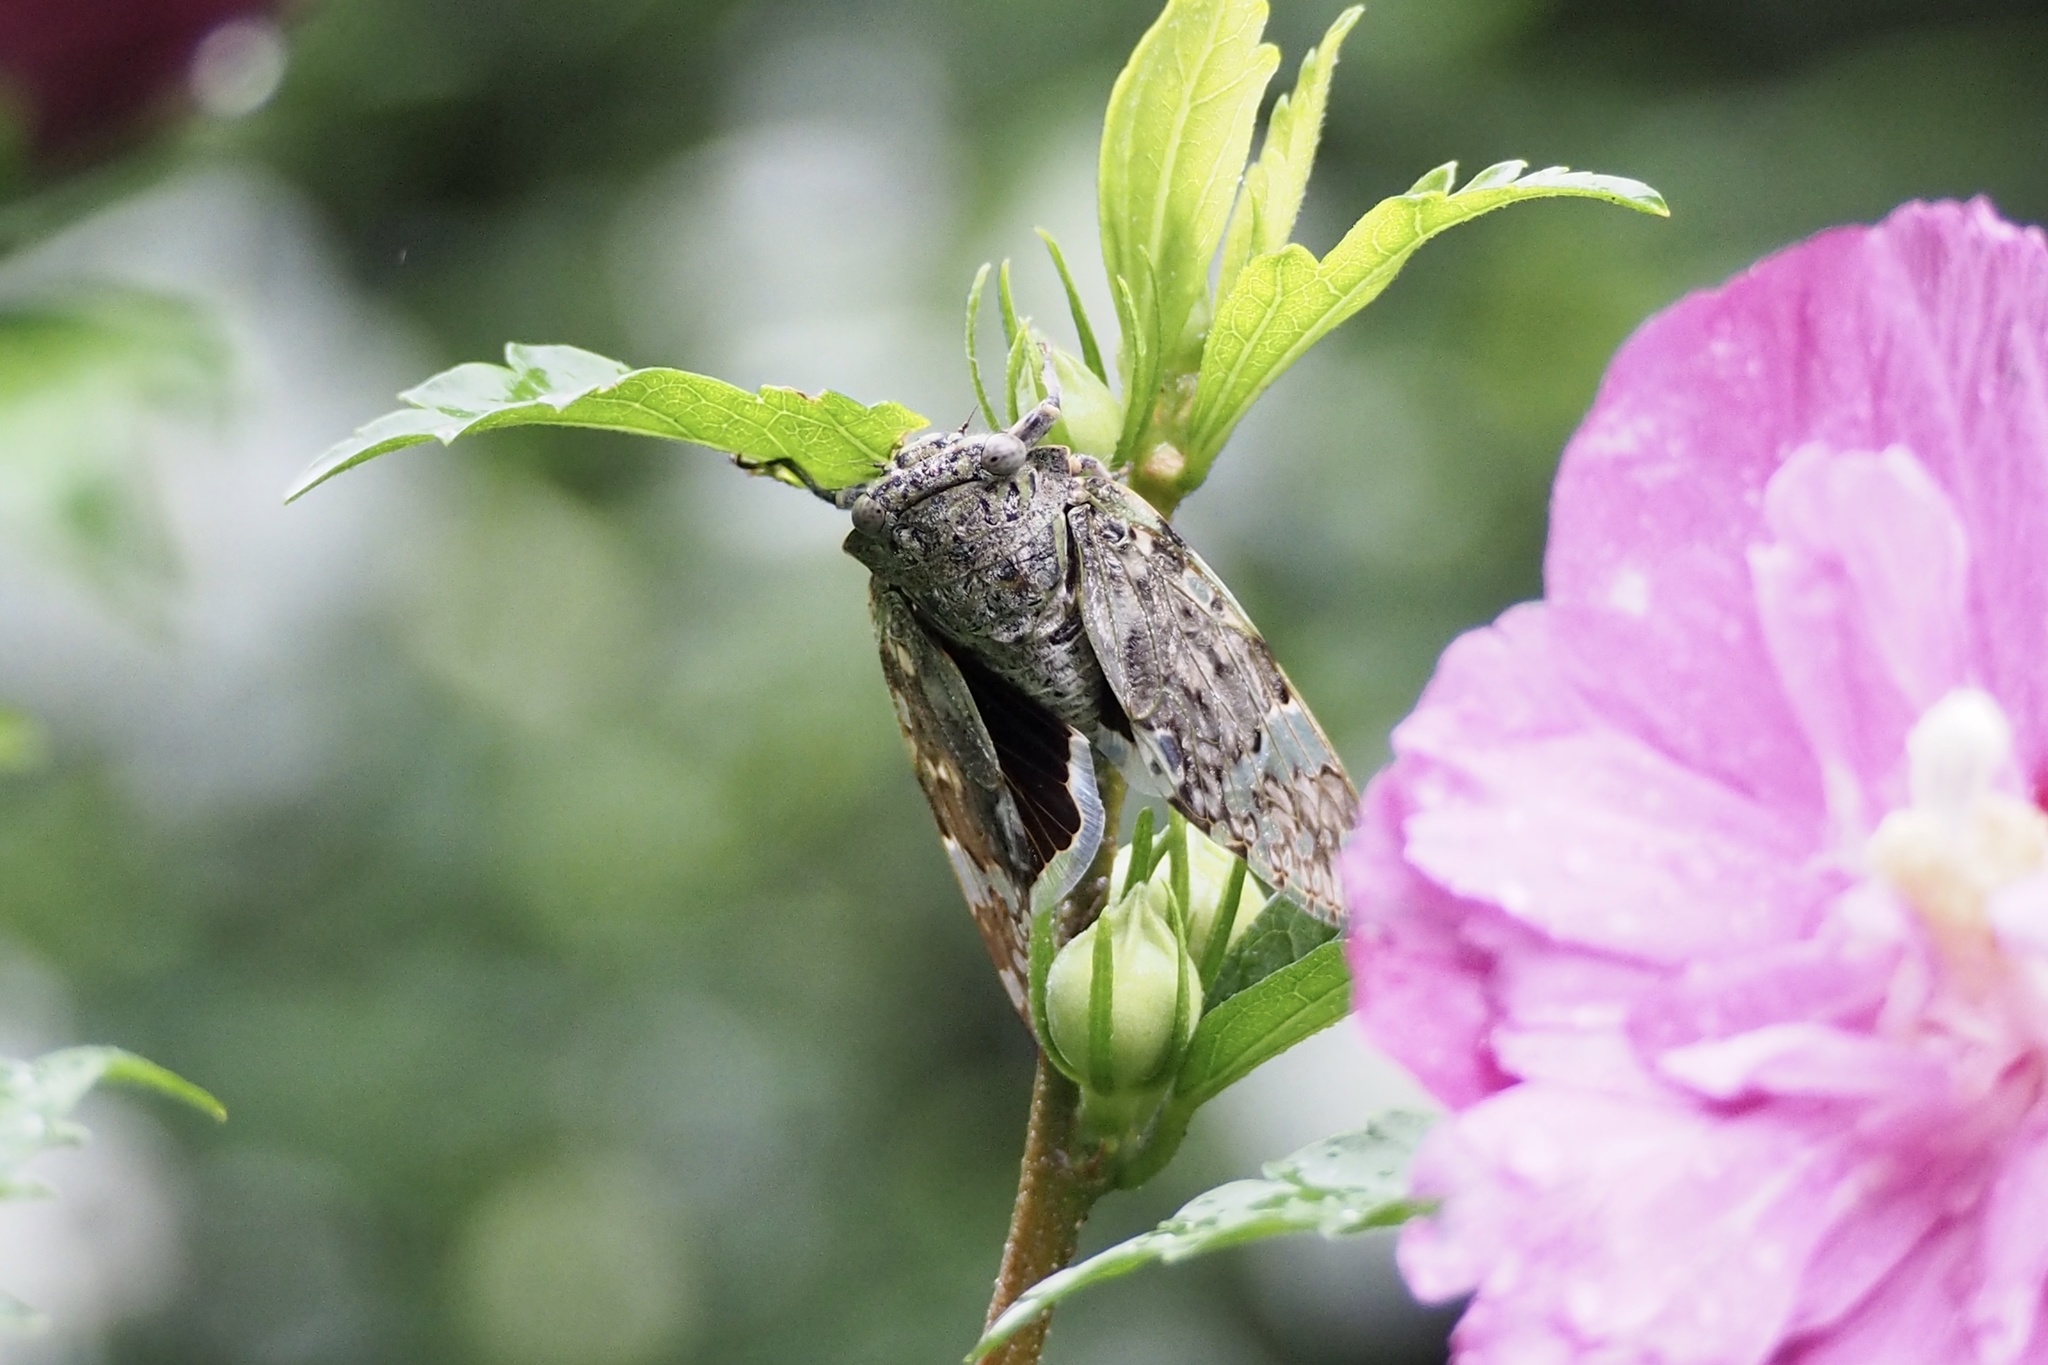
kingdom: Animalia
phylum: Arthropoda
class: Insecta
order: Hemiptera
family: Cicadidae
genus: Platypleura
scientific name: Platypleura kaempferi
